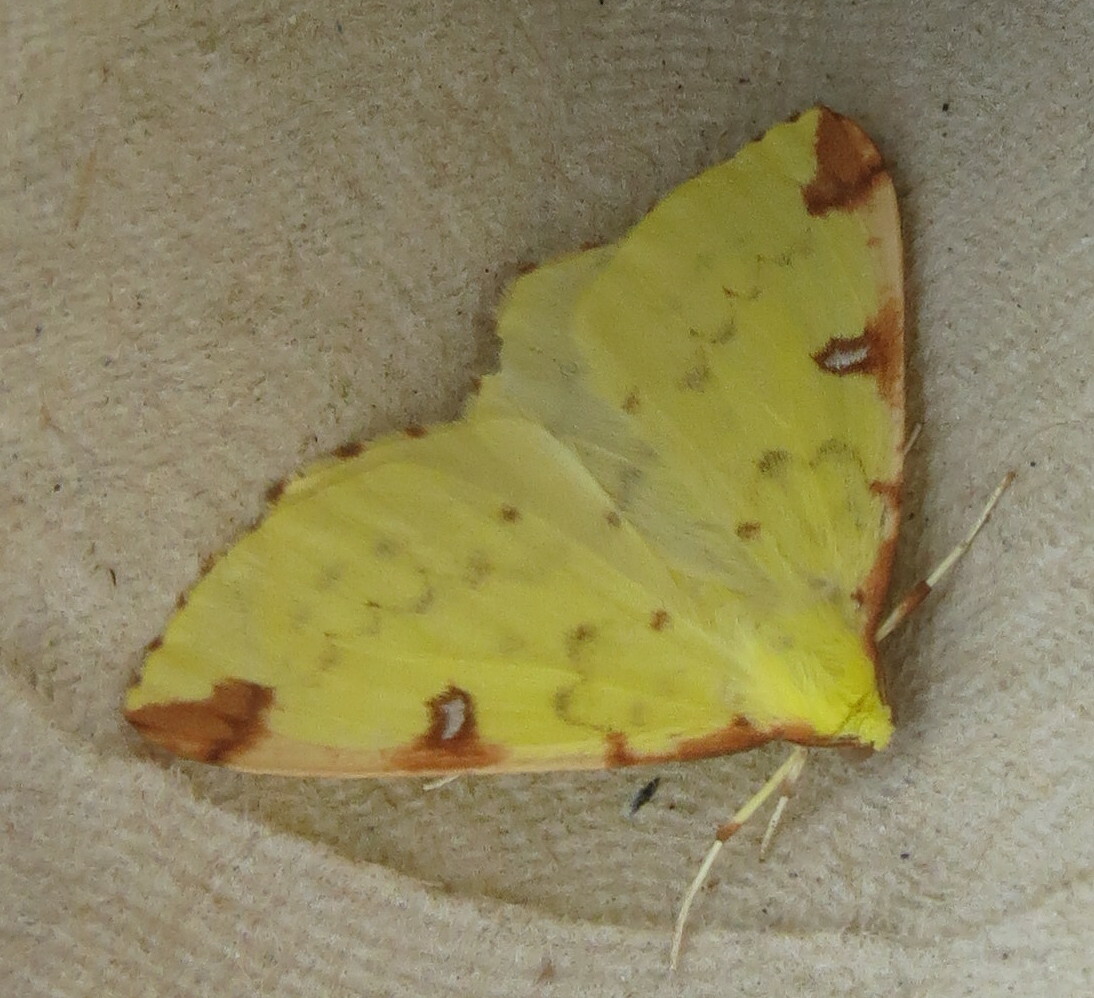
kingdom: Animalia
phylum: Arthropoda
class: Insecta
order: Lepidoptera
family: Geometridae
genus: Opisthograptis
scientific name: Opisthograptis luteolata
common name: Brimstone moth
